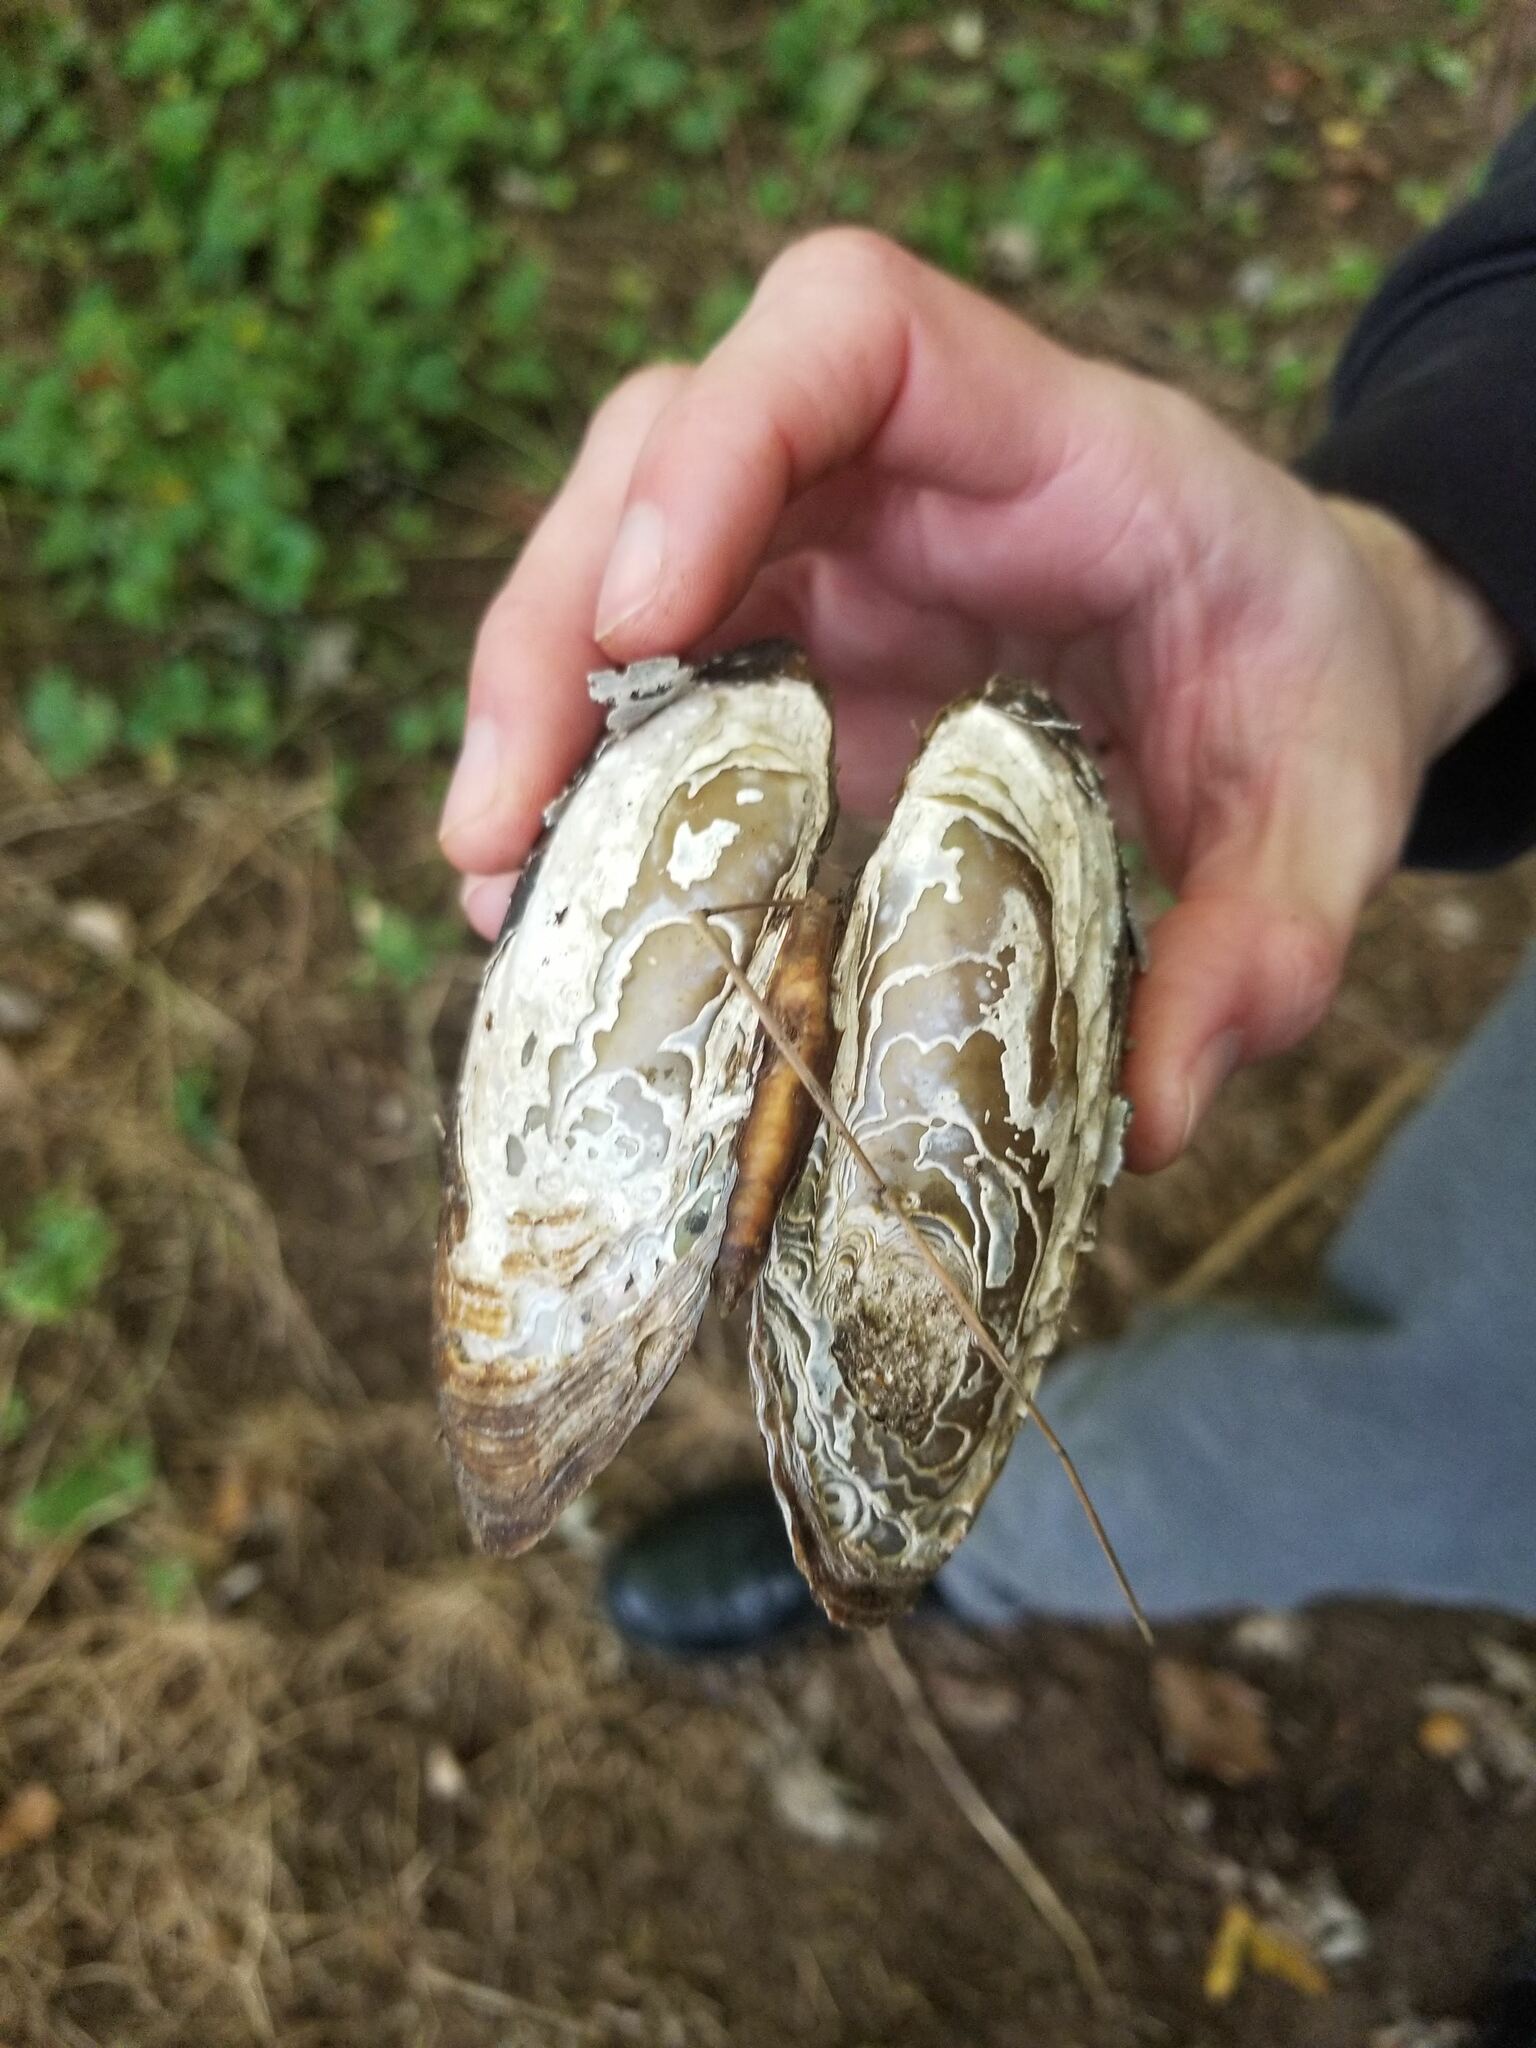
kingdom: Animalia
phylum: Mollusca
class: Bivalvia
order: Unionida
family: Unionidae
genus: Elliptio
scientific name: Elliptio complanata
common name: Eastern elliptio
